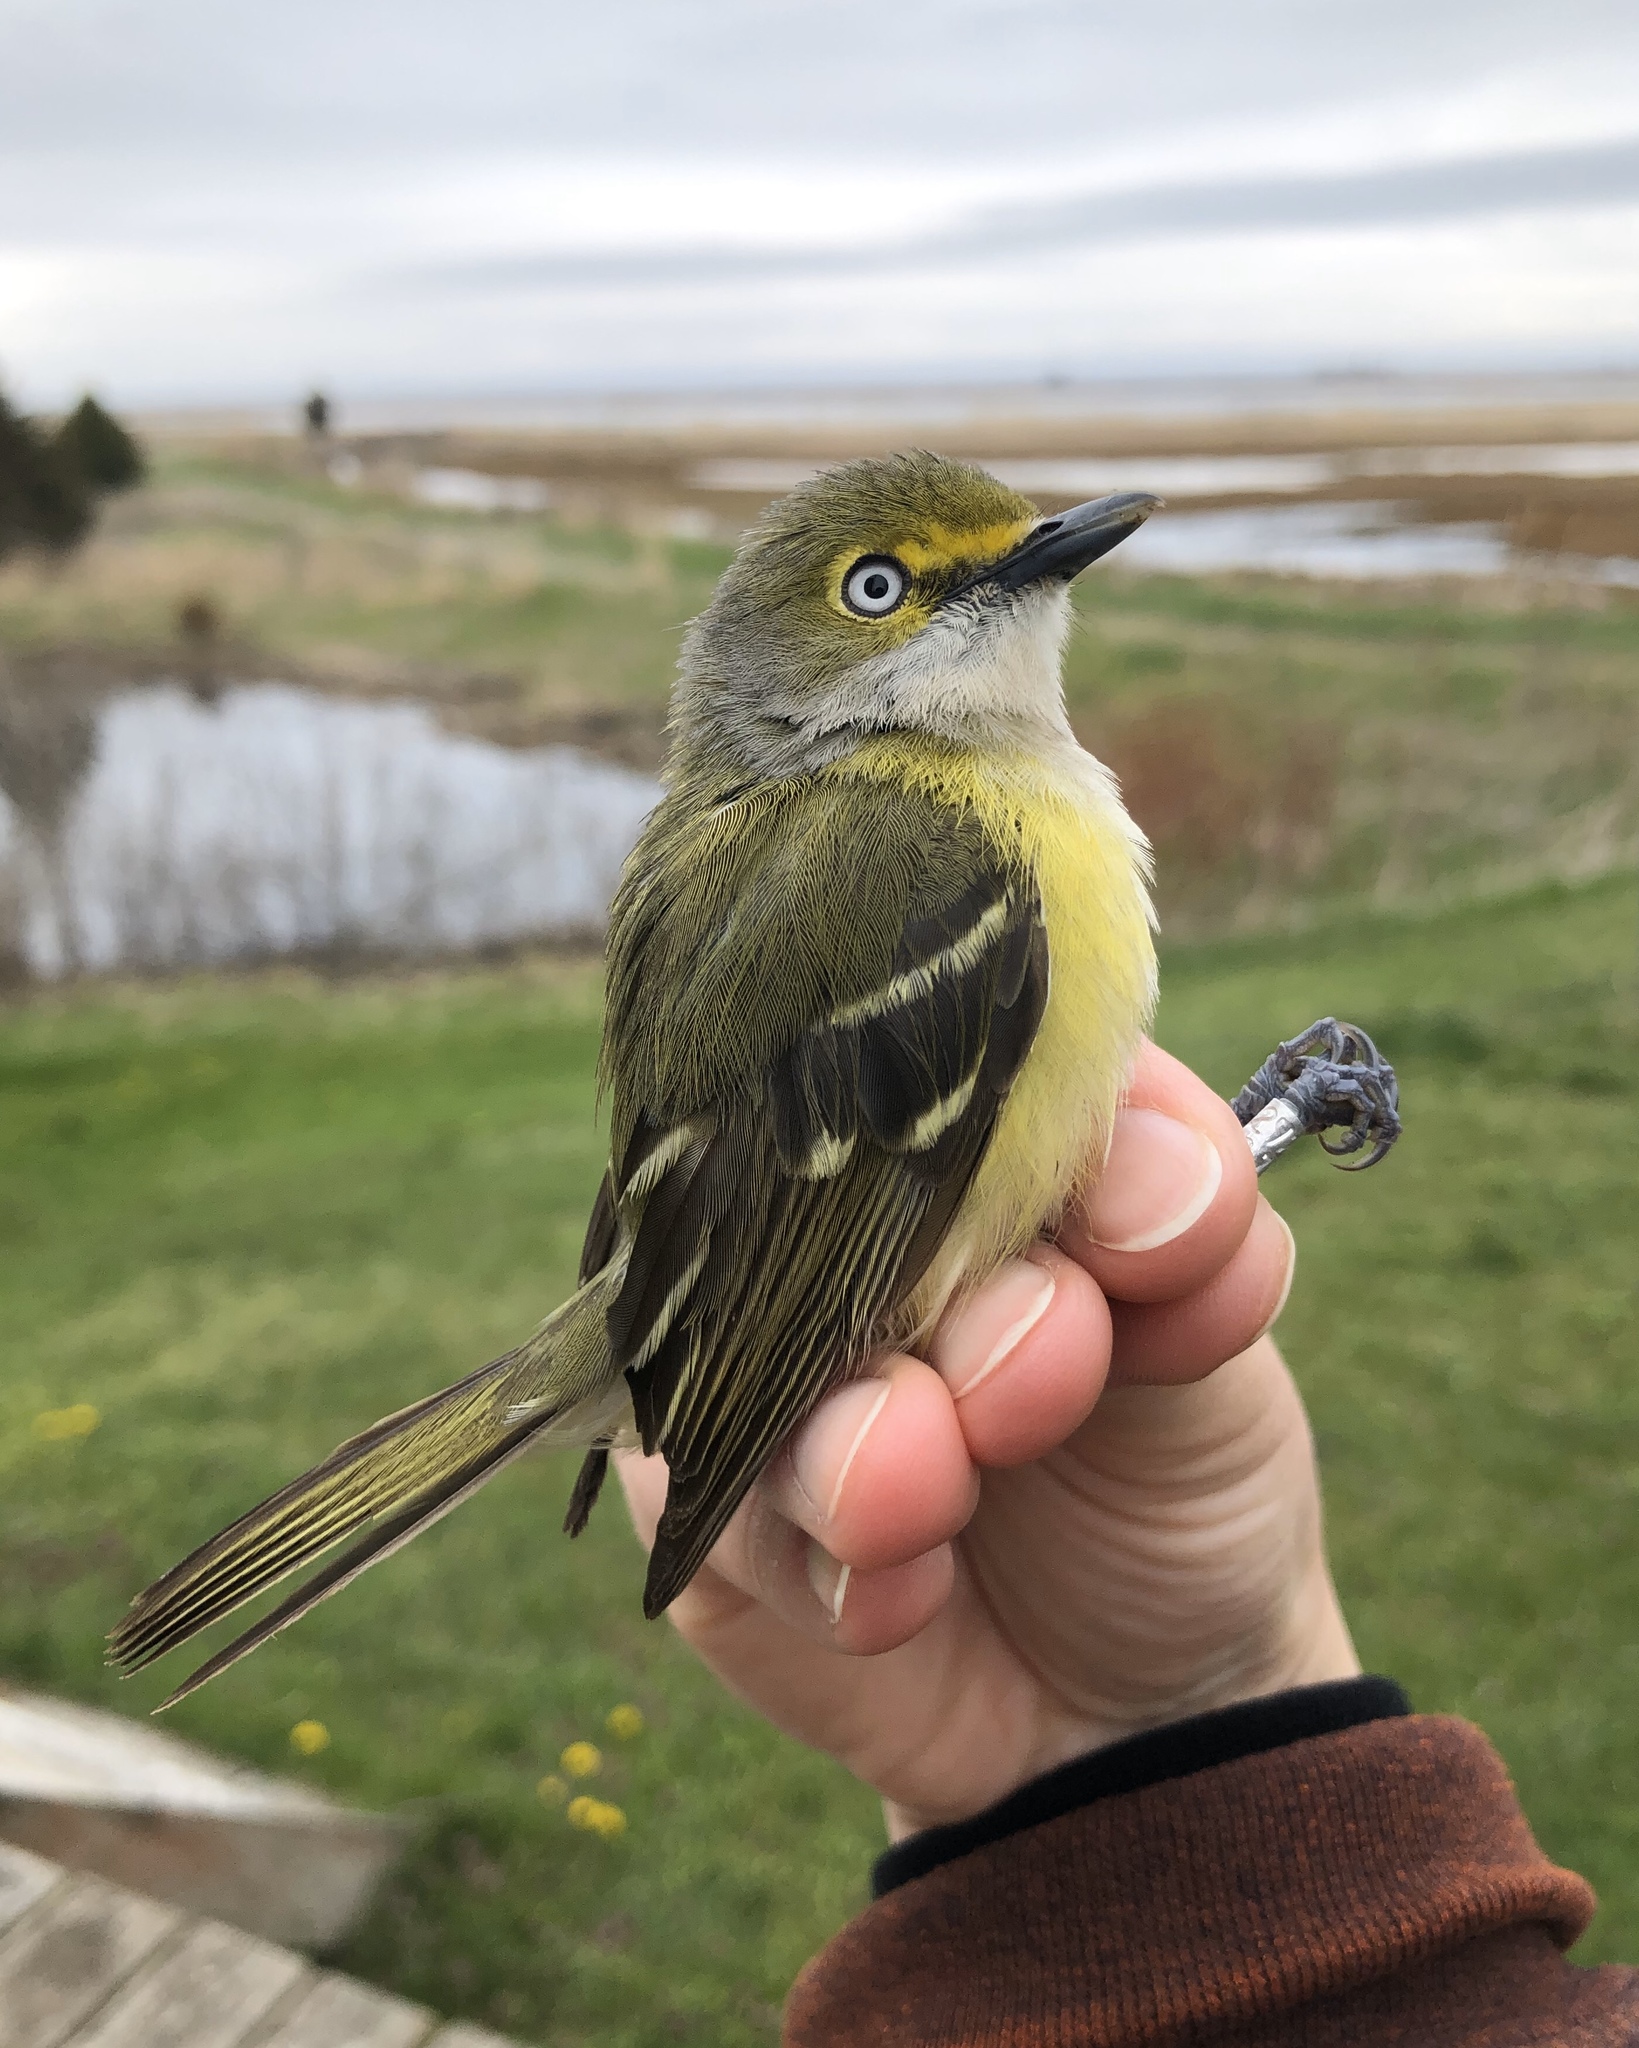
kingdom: Animalia
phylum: Chordata
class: Aves
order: Passeriformes
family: Vireonidae
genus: Vireo
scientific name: Vireo griseus
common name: White-eyed vireo
